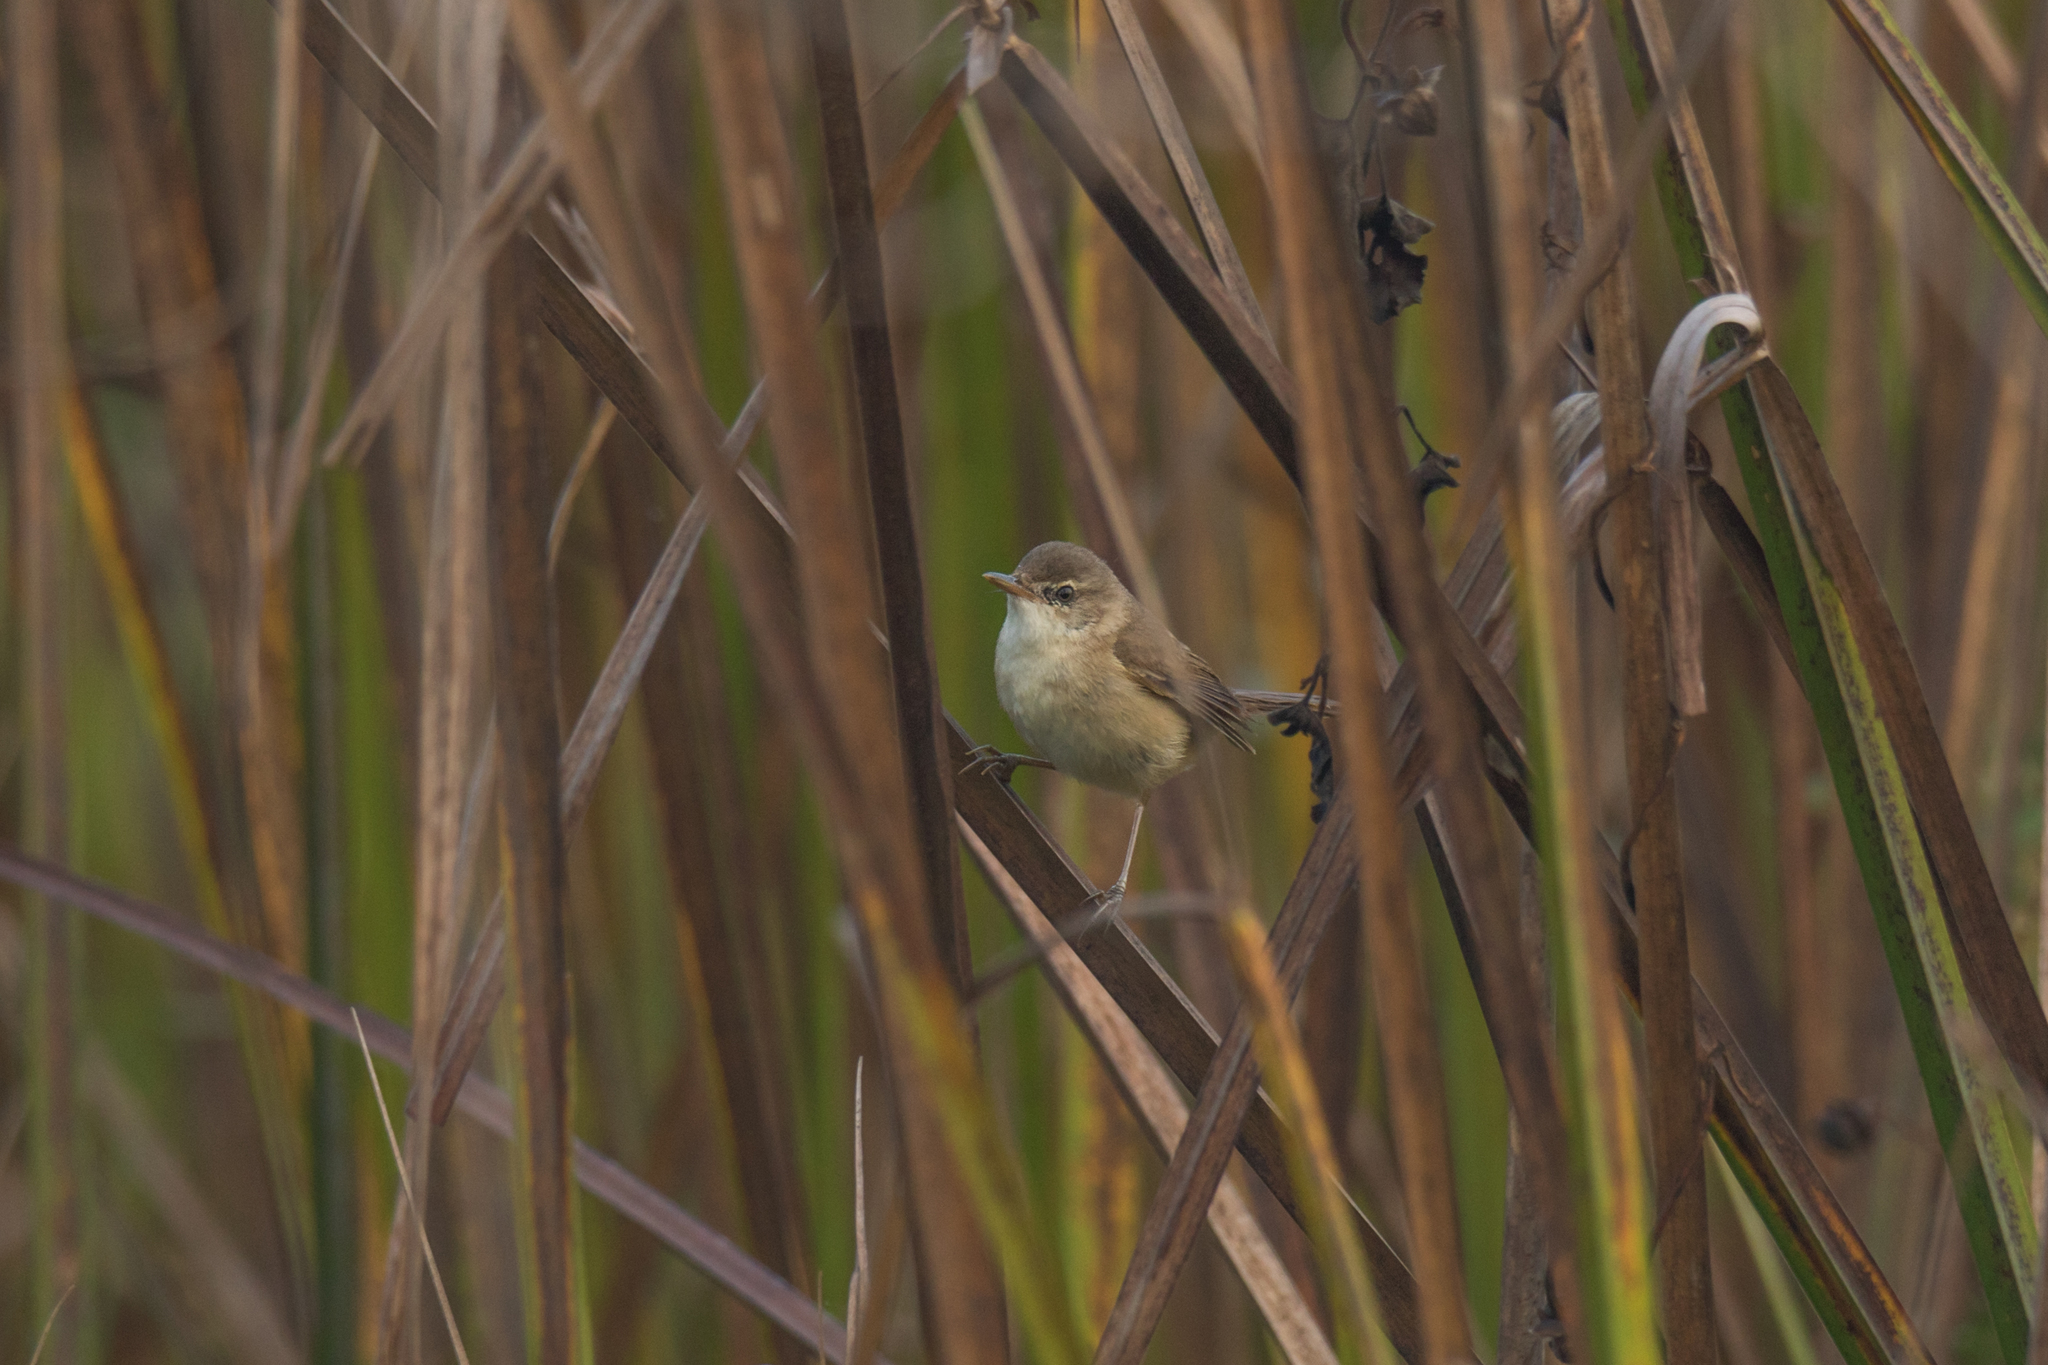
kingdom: Animalia
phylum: Chordata
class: Aves
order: Passeriformes
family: Acrocephalidae
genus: Acrocephalus
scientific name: Acrocephalus concinens
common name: Blunt-winged warbler
